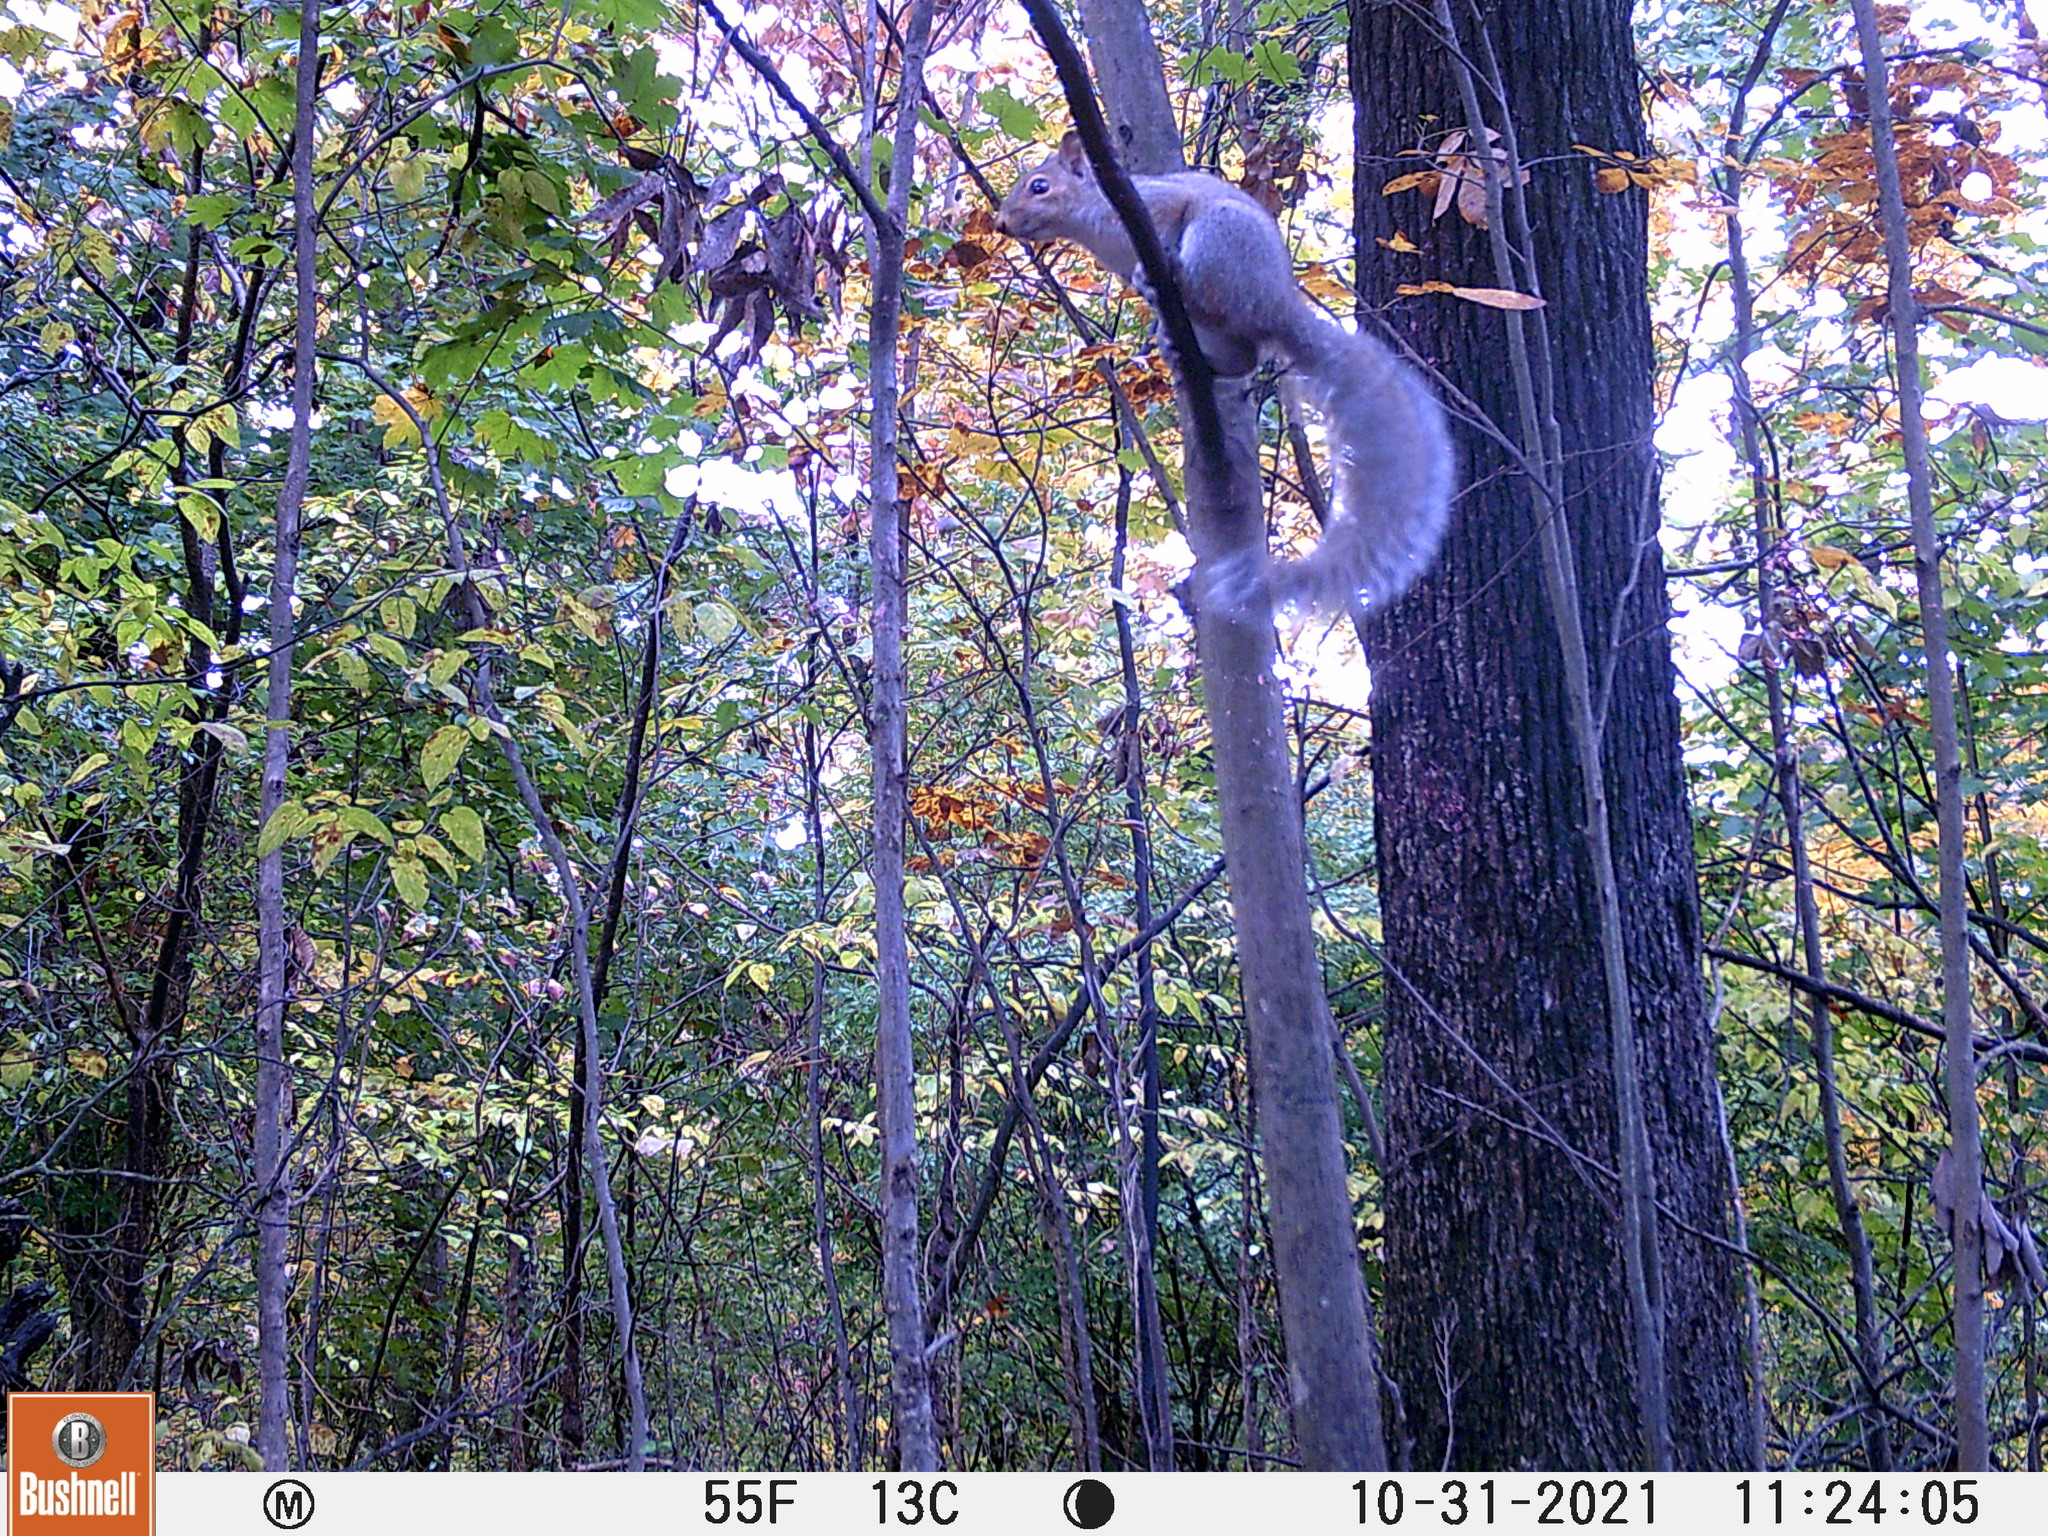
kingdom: Animalia
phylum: Chordata
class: Mammalia
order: Rodentia
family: Sciuridae
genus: Sciurus
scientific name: Sciurus carolinensis
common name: Eastern gray squirrel
